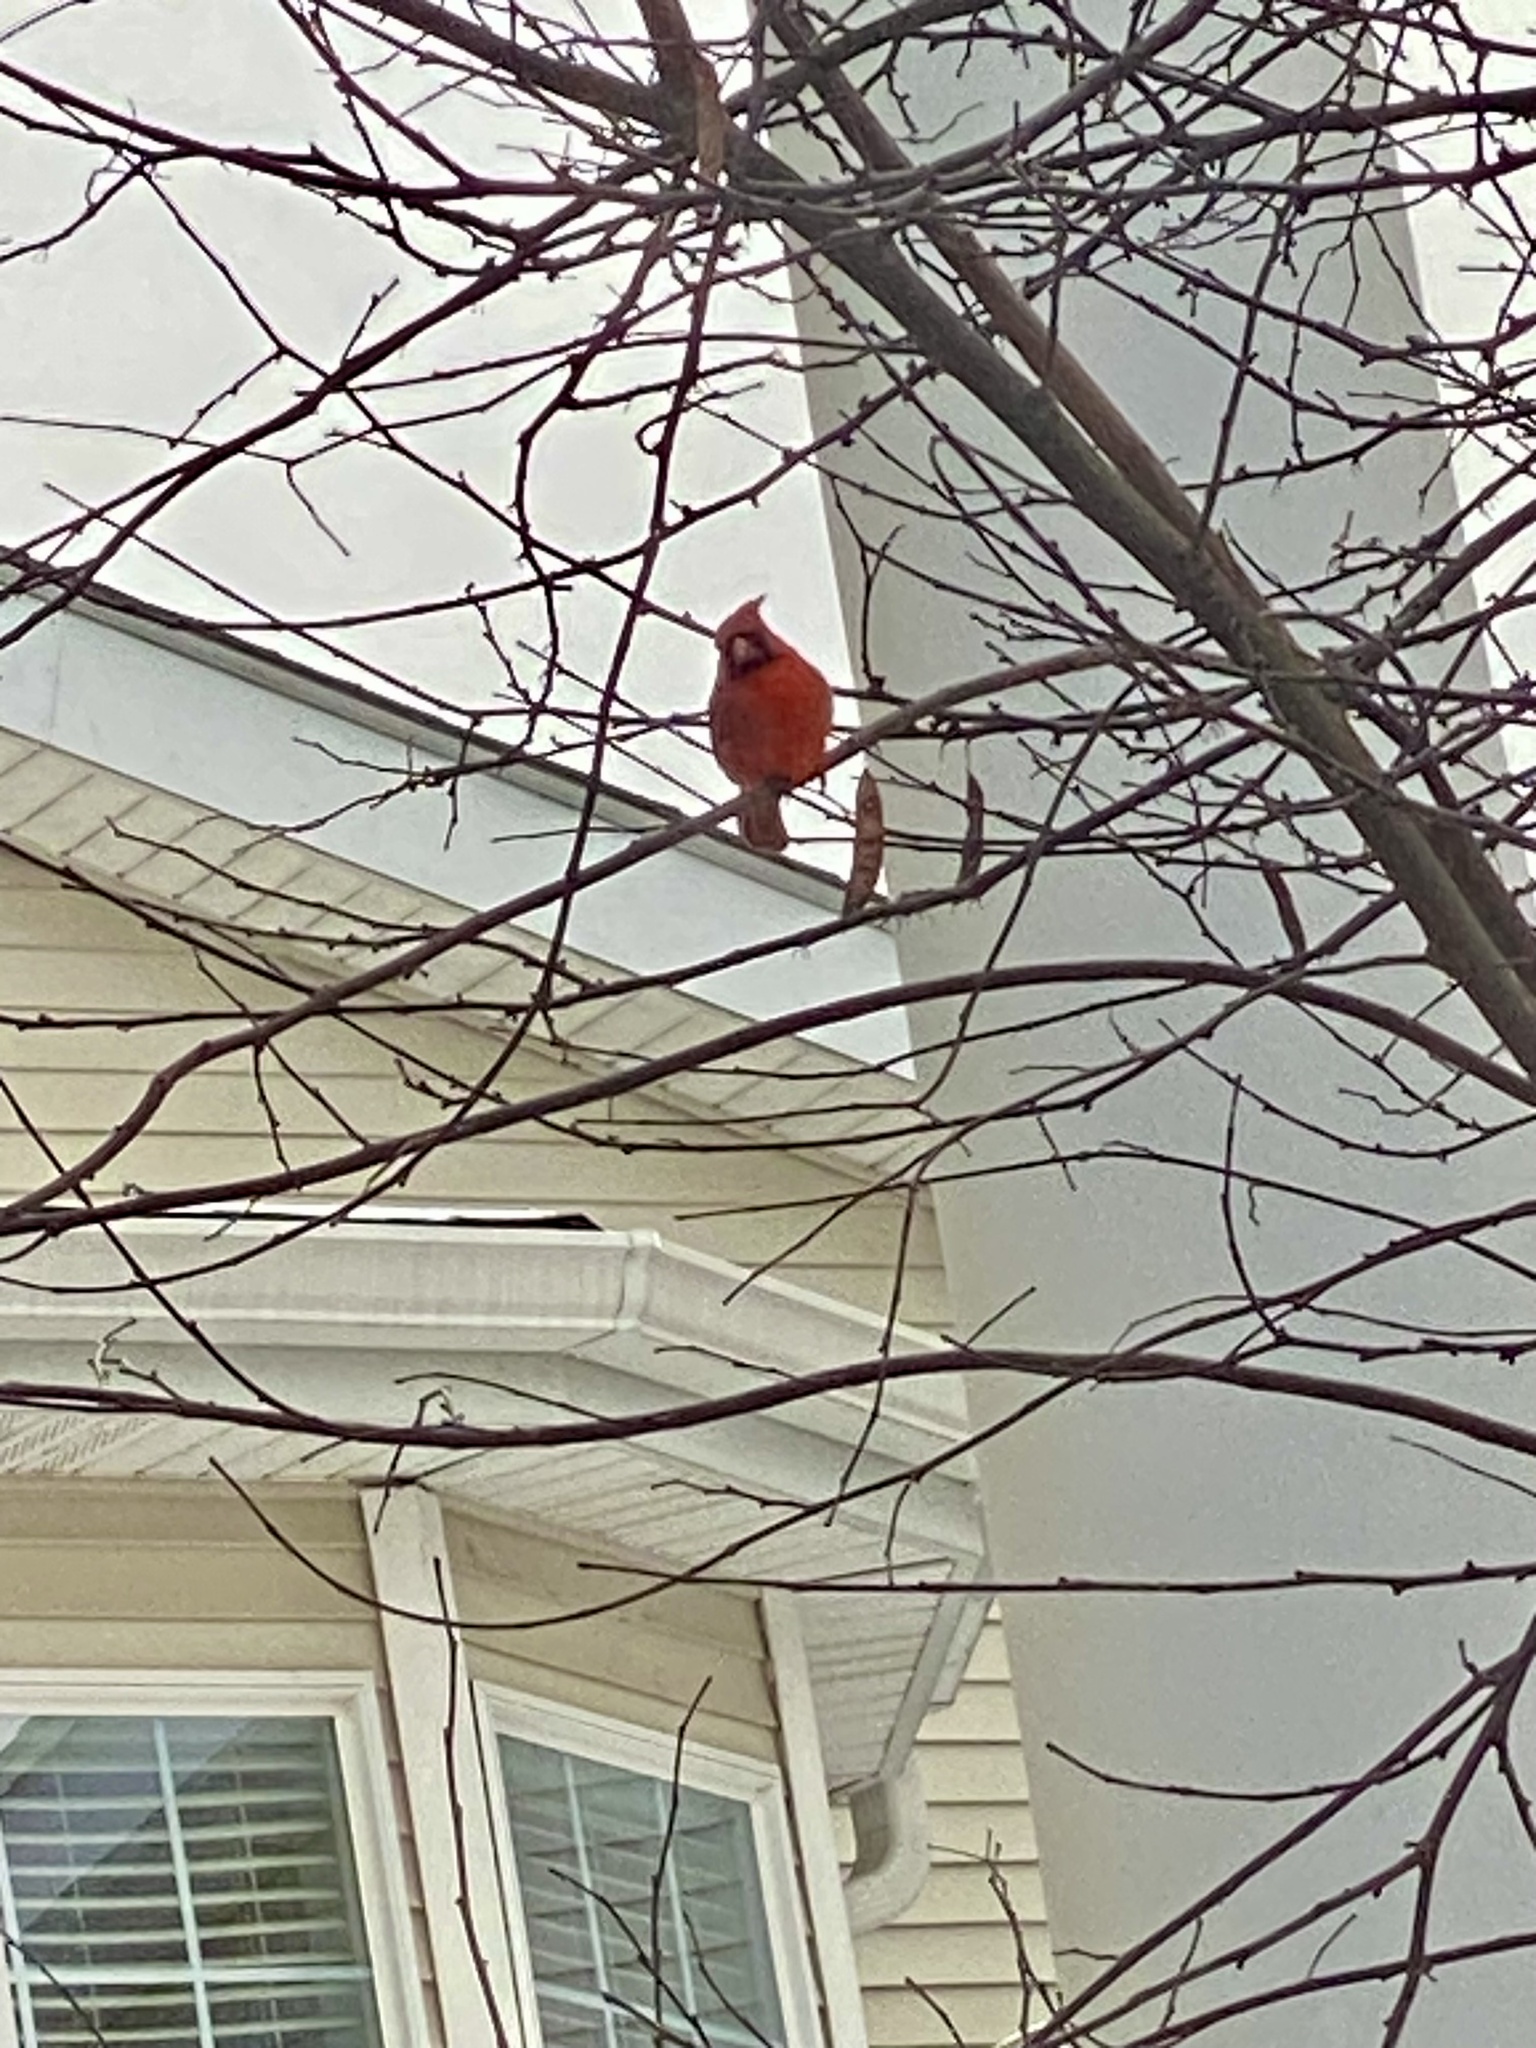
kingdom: Animalia
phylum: Chordata
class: Aves
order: Passeriformes
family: Cardinalidae
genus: Cardinalis
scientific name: Cardinalis cardinalis
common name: Northern cardinal
